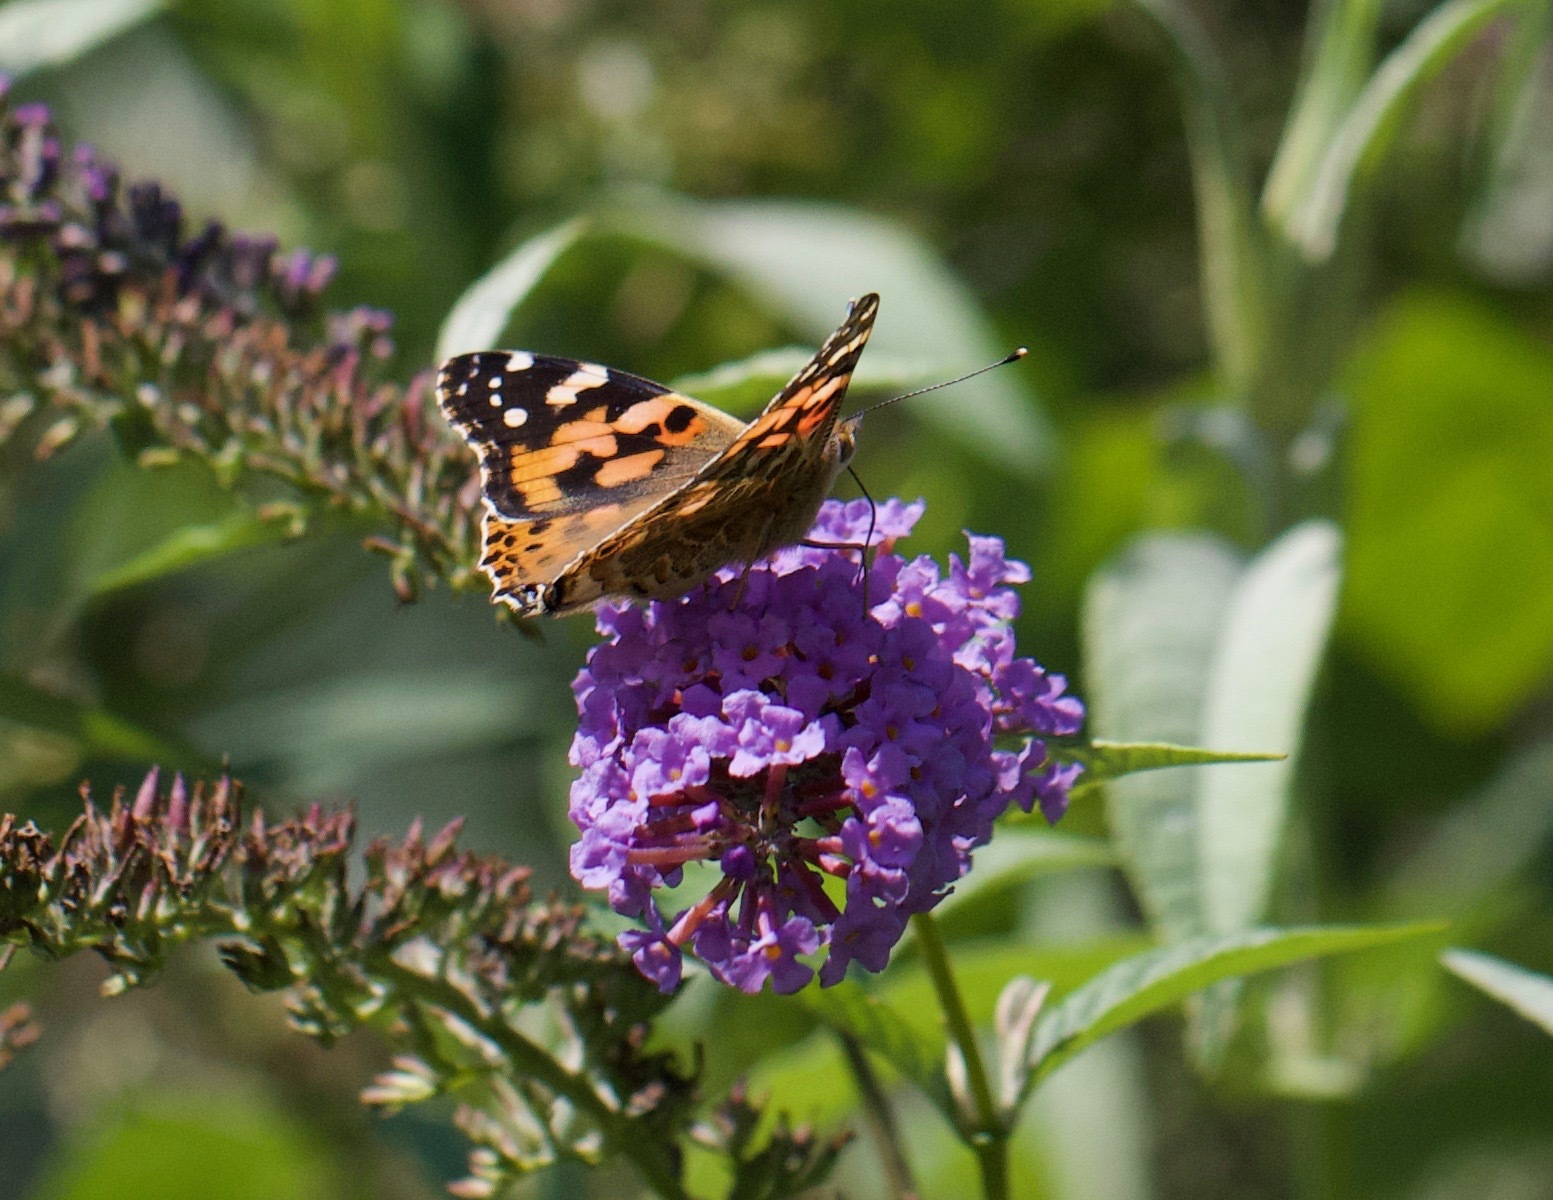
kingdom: Animalia
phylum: Arthropoda
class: Insecta
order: Lepidoptera
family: Nymphalidae
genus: Vanessa
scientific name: Vanessa cardui
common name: Painted lady
